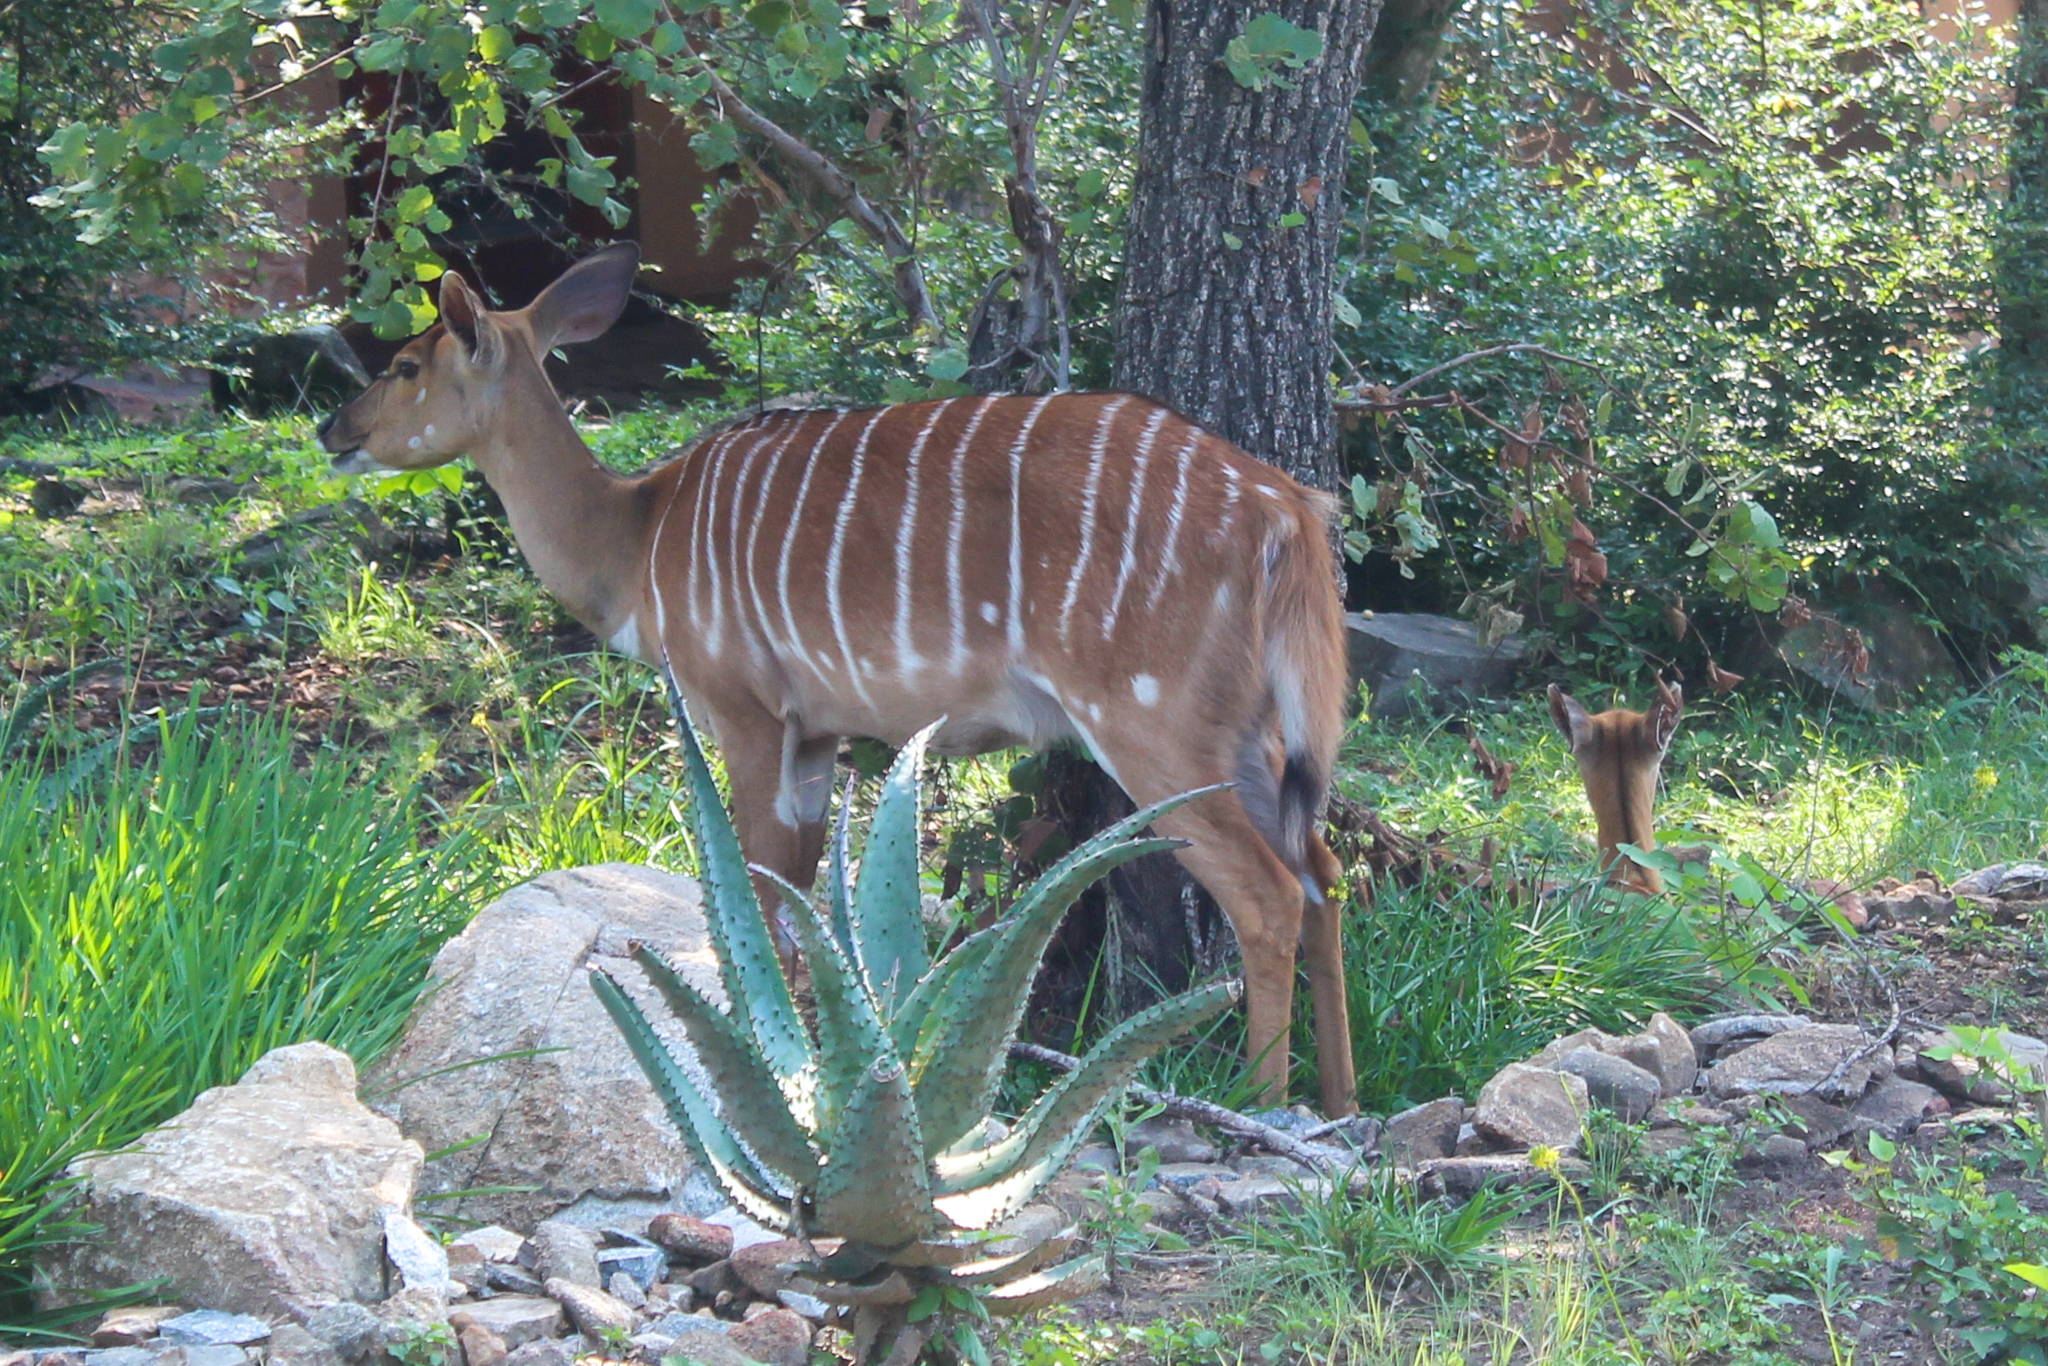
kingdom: Animalia
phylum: Chordata
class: Mammalia
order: Artiodactyla
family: Bovidae
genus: Tragelaphus
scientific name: Tragelaphus angasii
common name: Nyala
